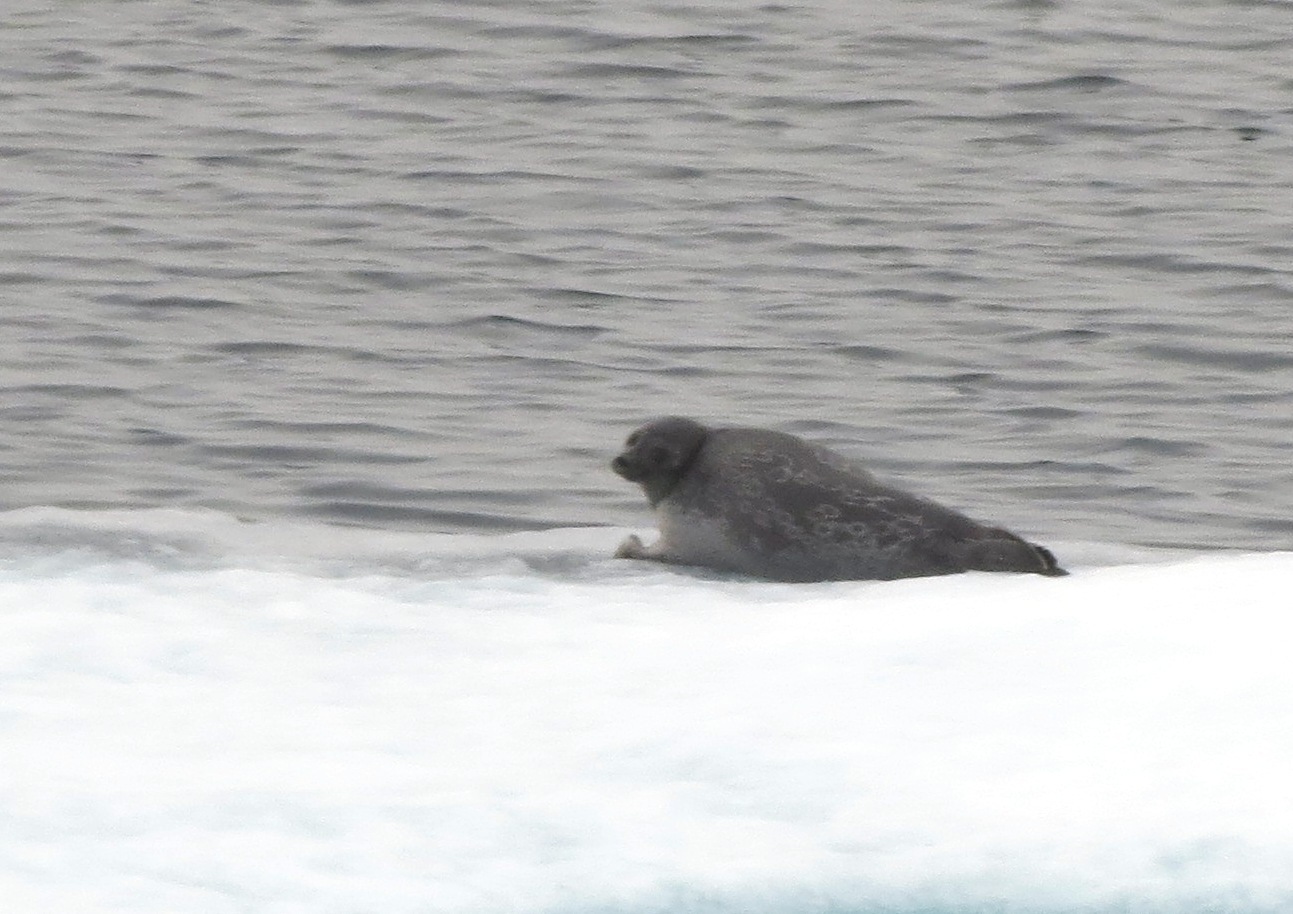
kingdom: Animalia
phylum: Chordata
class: Mammalia
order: Carnivora
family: Phocidae
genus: Pusa
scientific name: Pusa hispida
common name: Ringed seal
